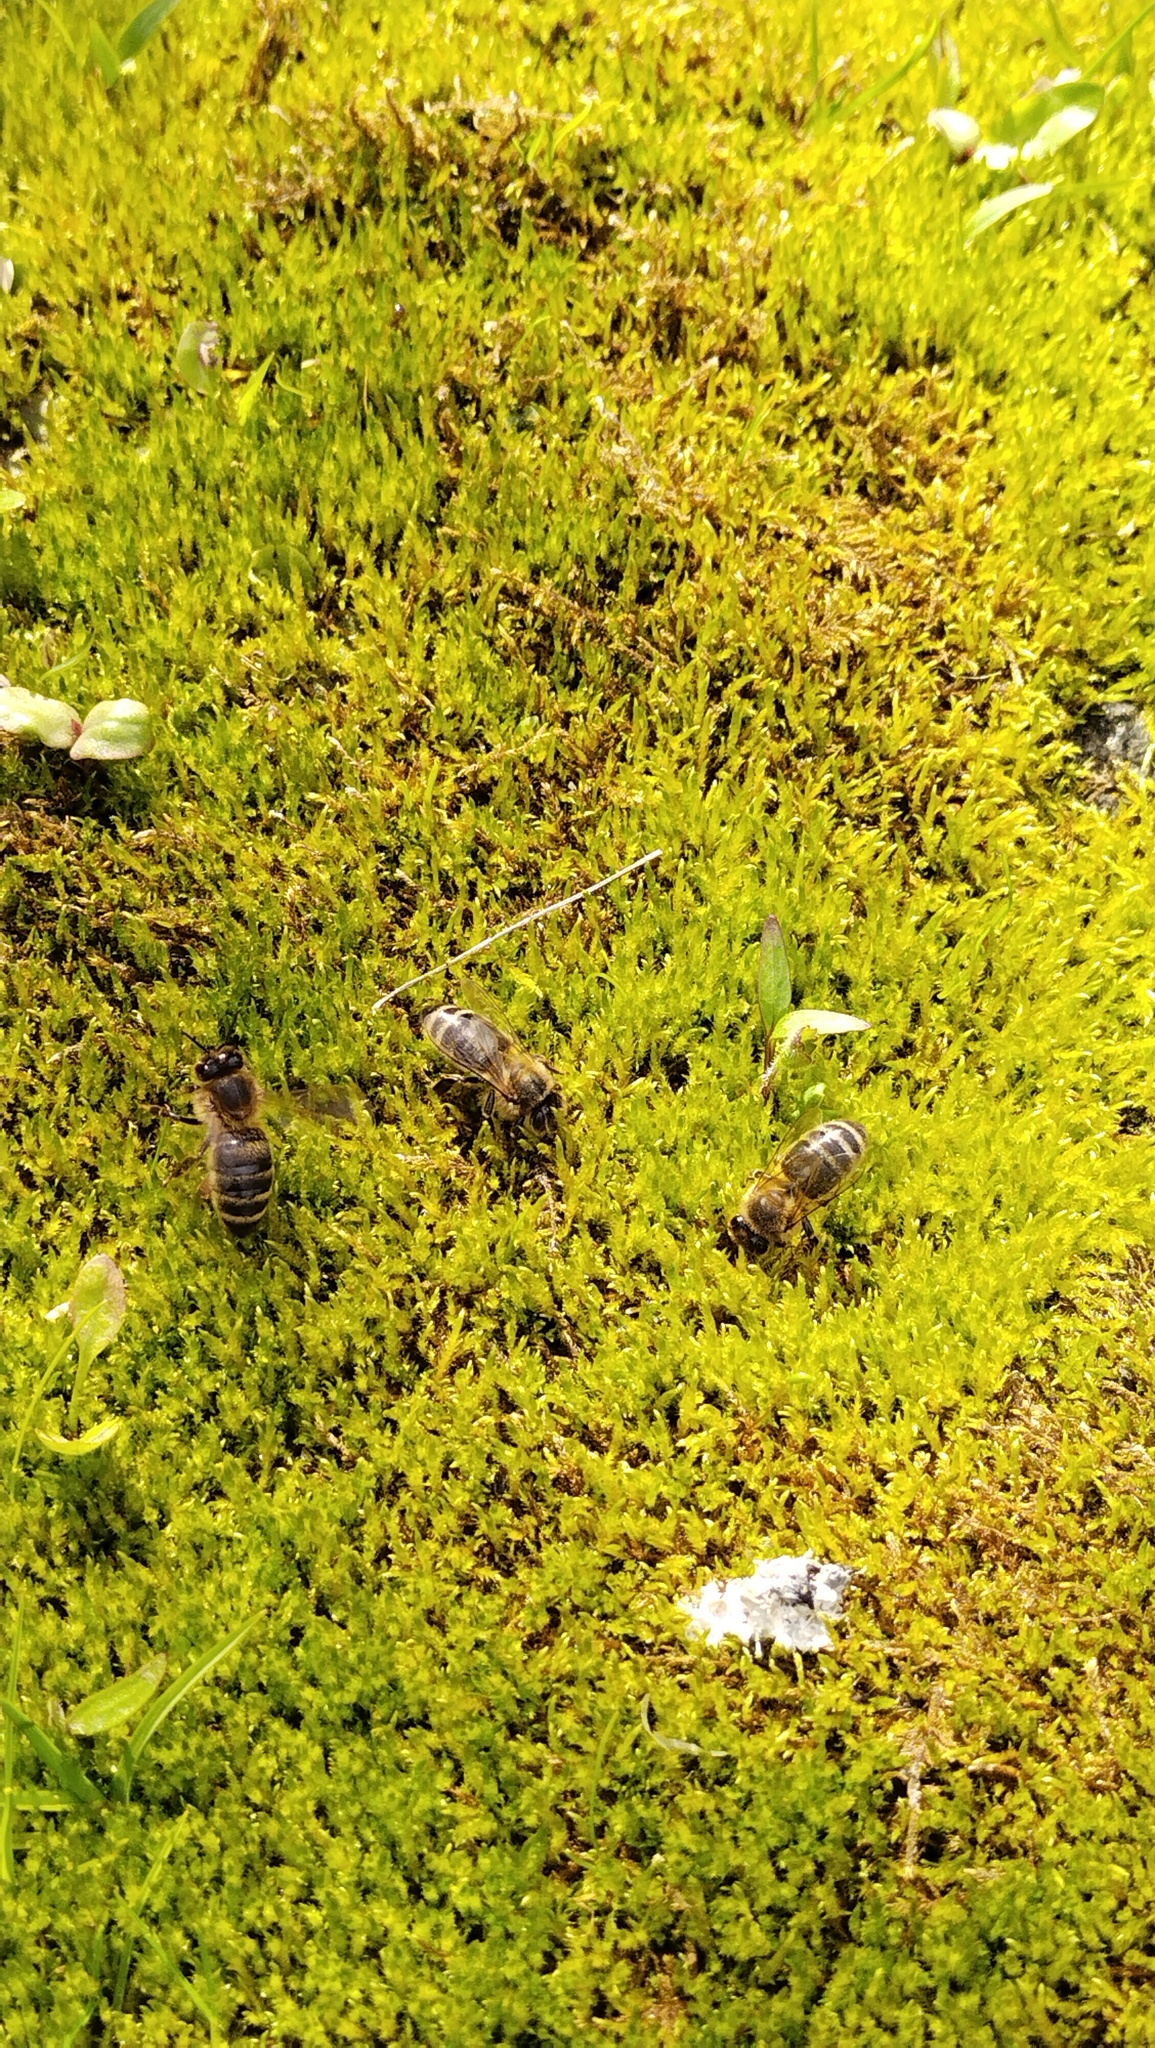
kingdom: Animalia
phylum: Arthropoda
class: Insecta
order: Hymenoptera
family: Apidae
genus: Apis
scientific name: Apis mellifera
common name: Honey bee
